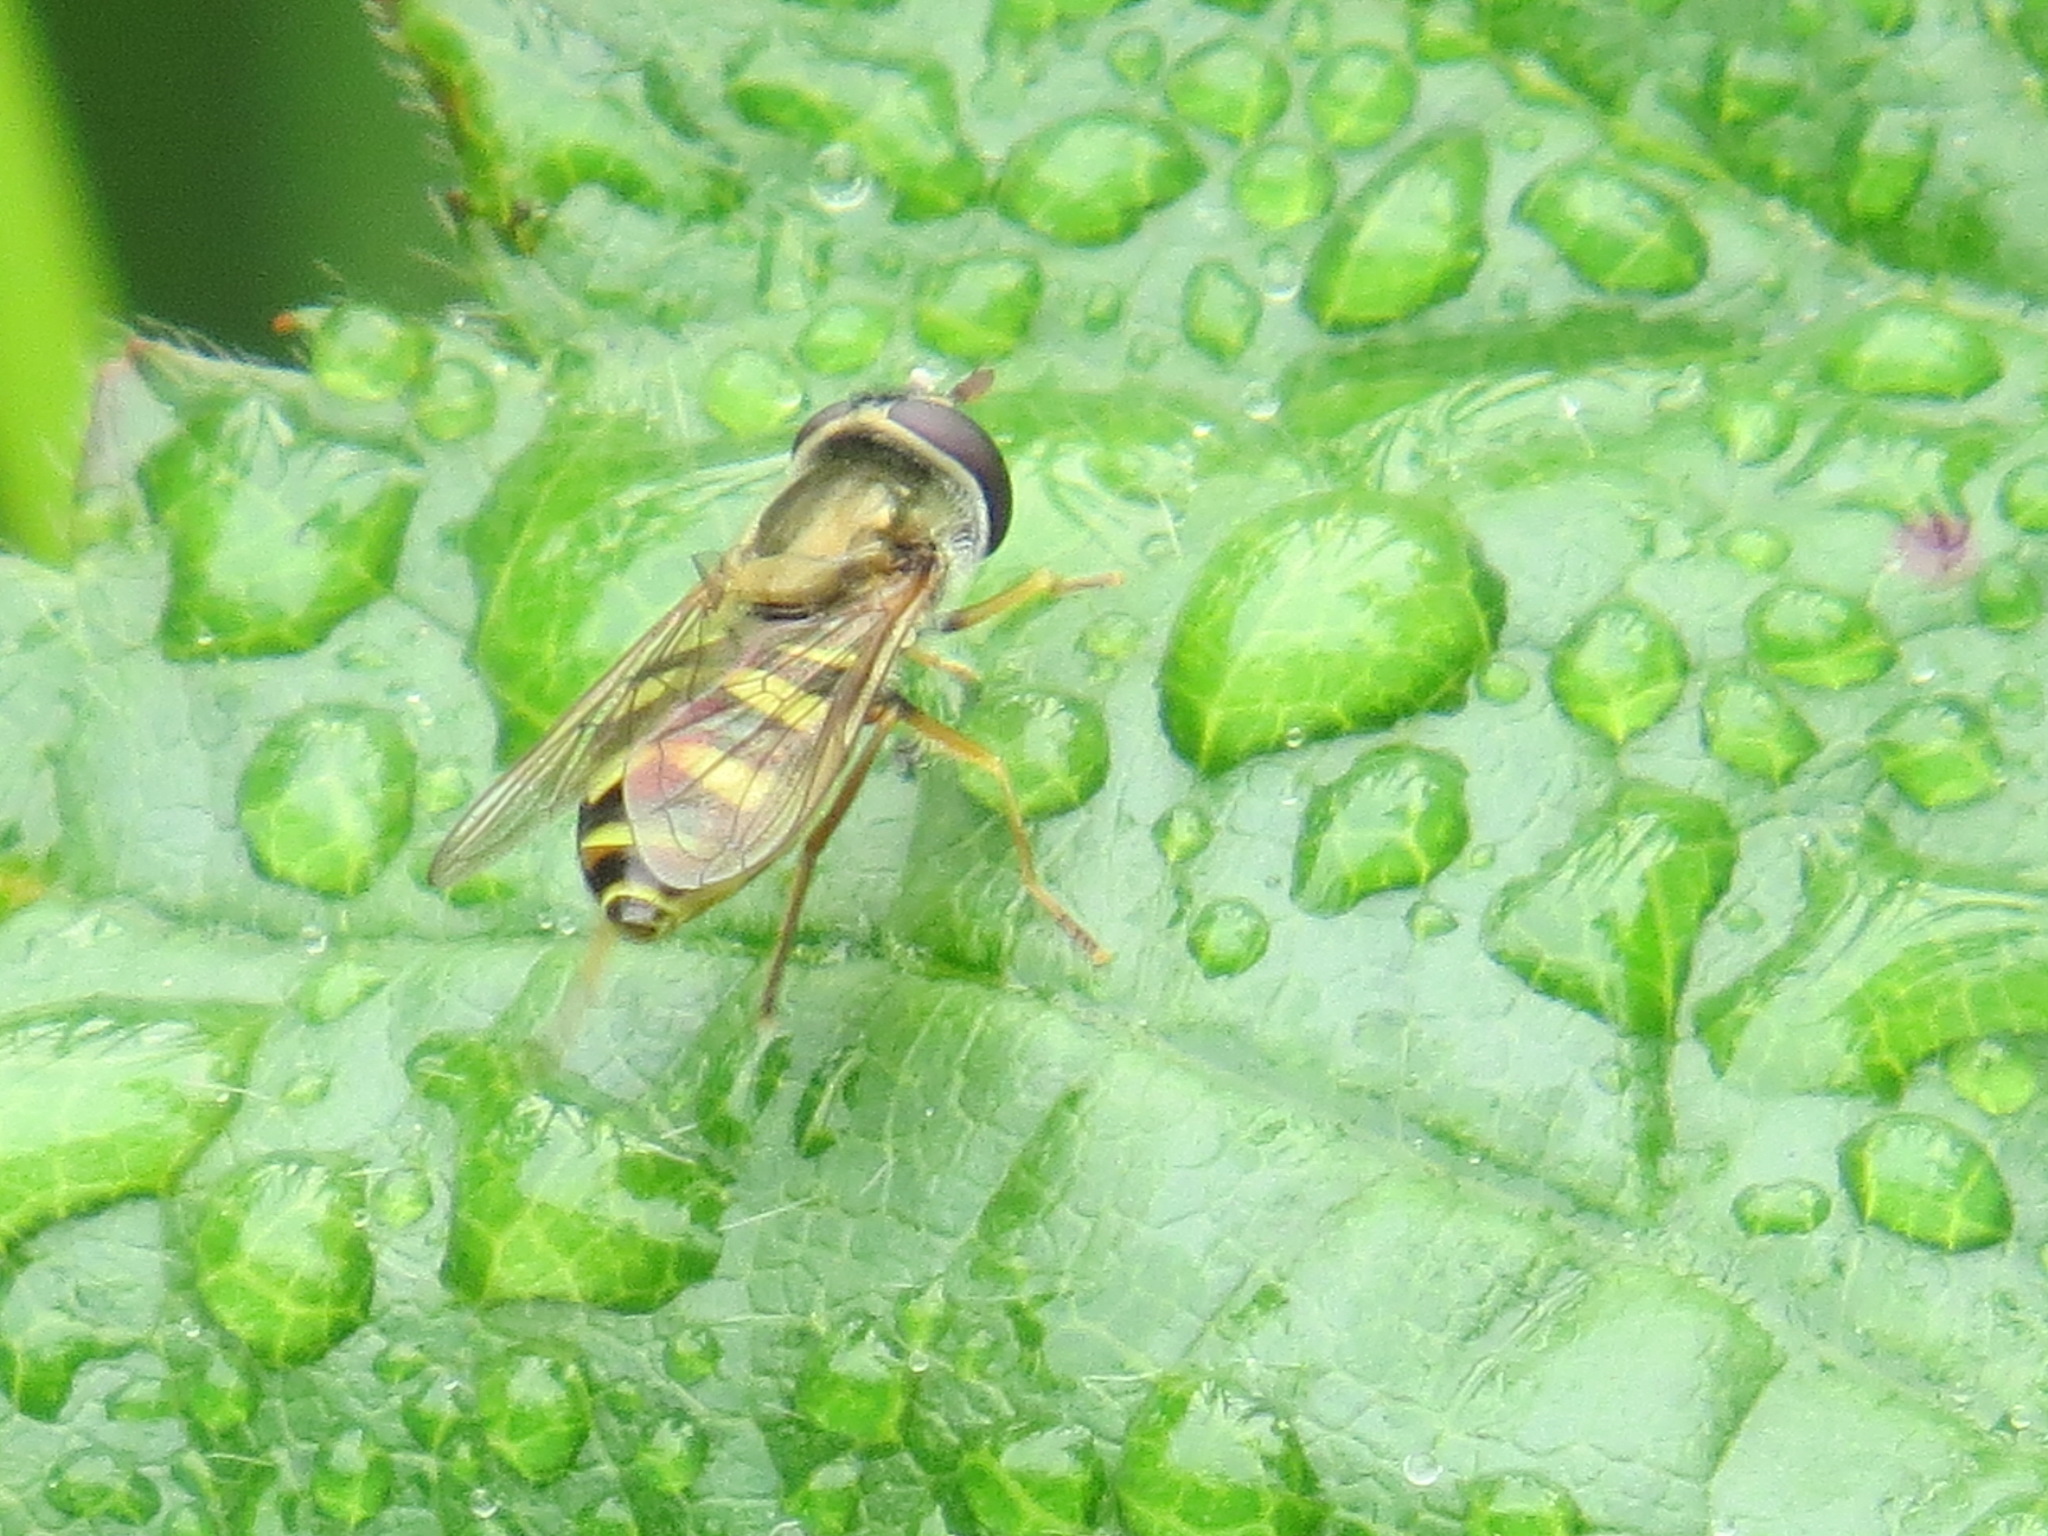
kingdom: Animalia
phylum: Arthropoda
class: Insecta
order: Diptera
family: Syrphidae
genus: Eupeodes
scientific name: Eupeodes fumipennis
